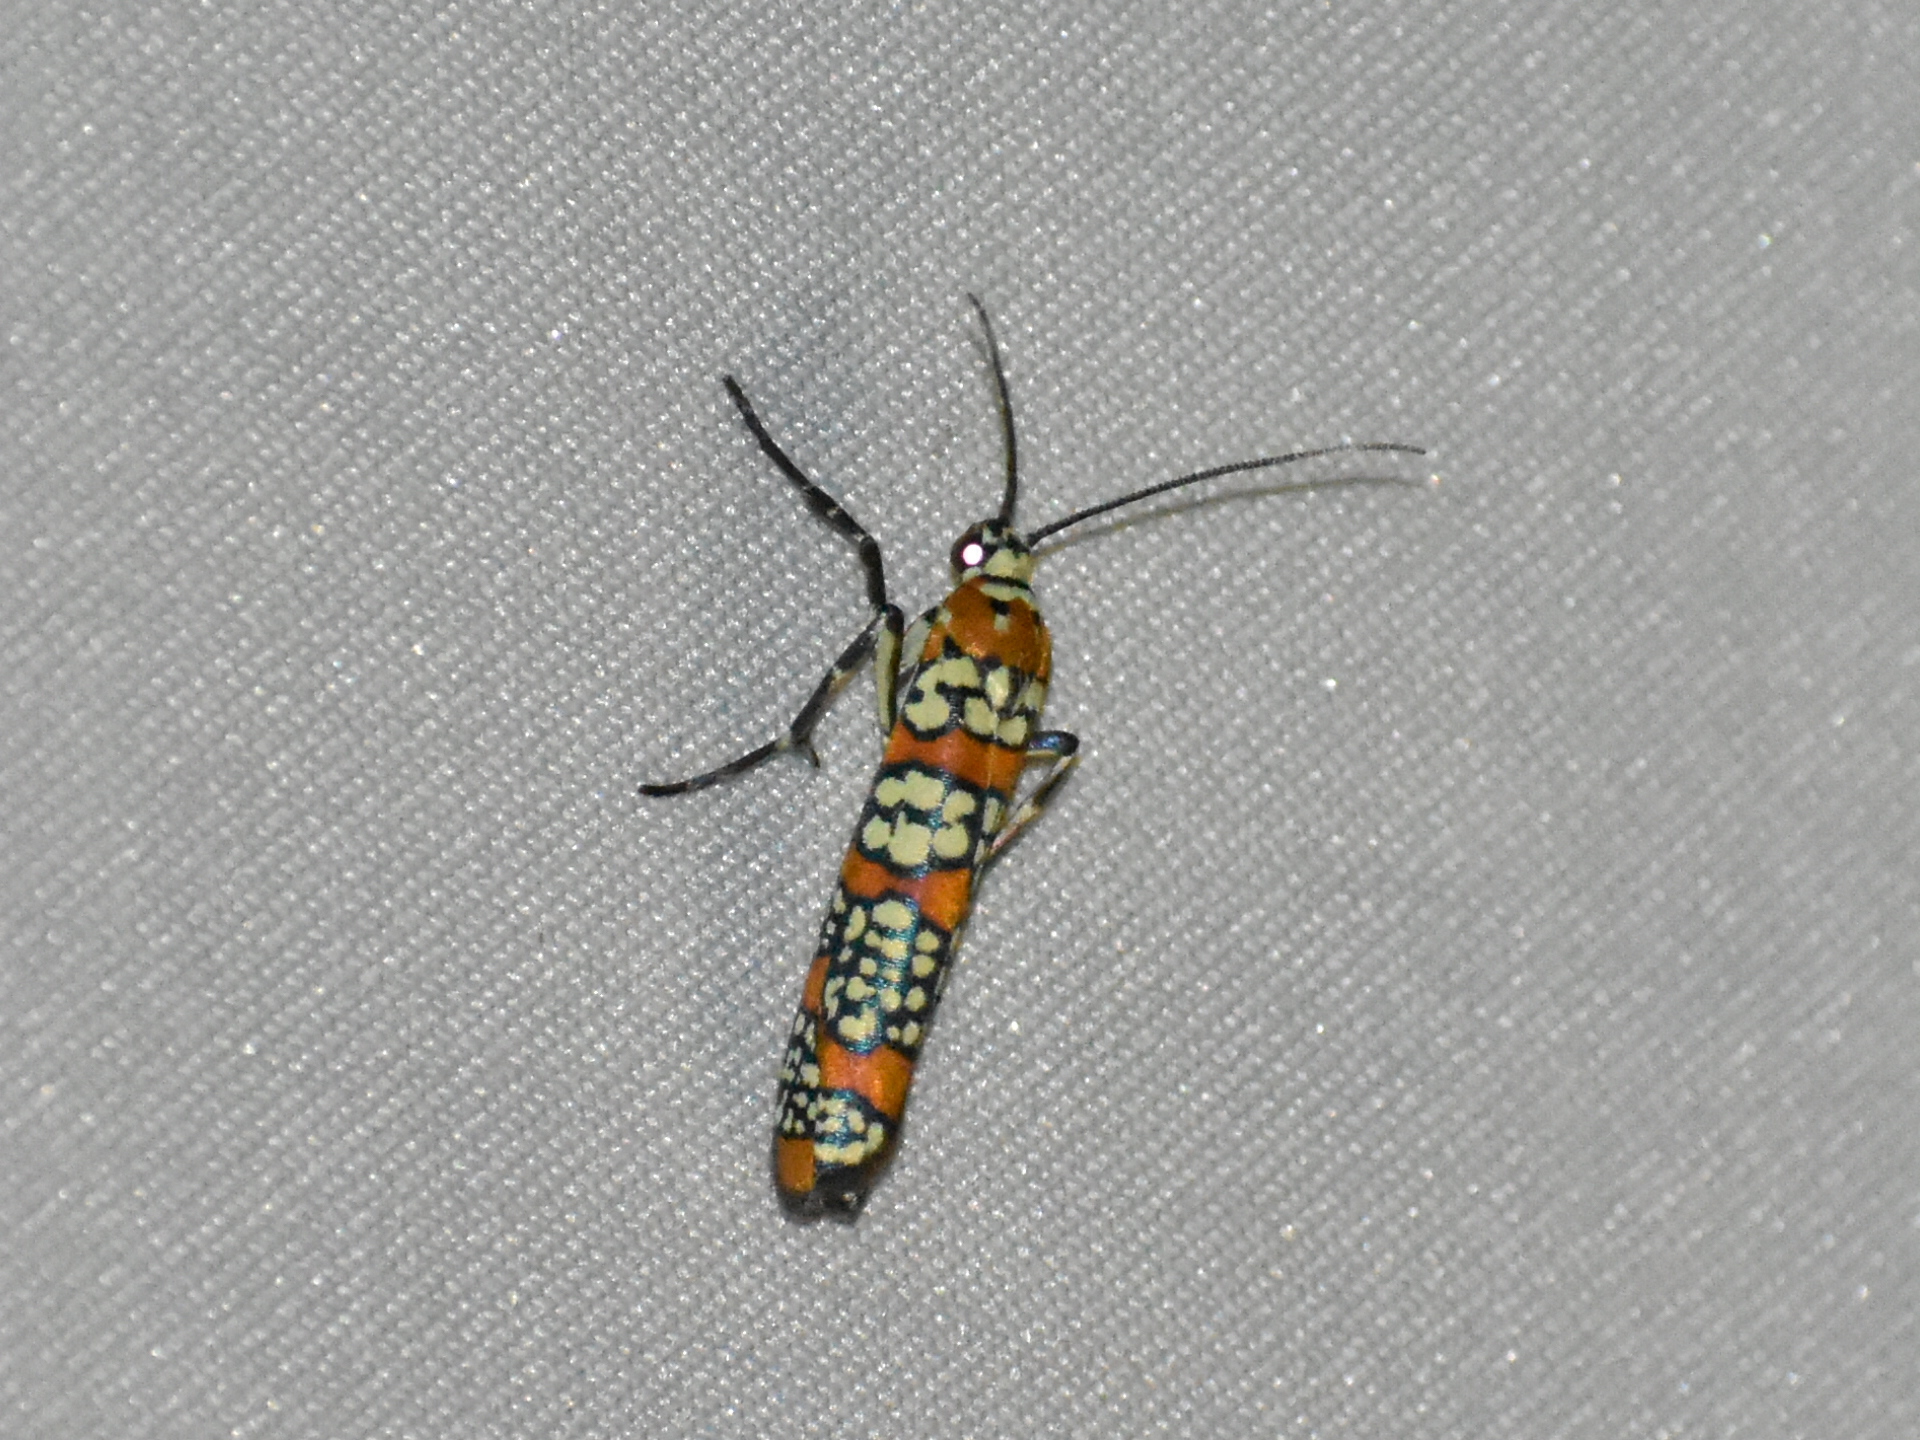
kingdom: Animalia
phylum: Arthropoda
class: Insecta
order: Lepidoptera
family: Attevidae
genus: Atteva
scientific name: Atteva punctella
